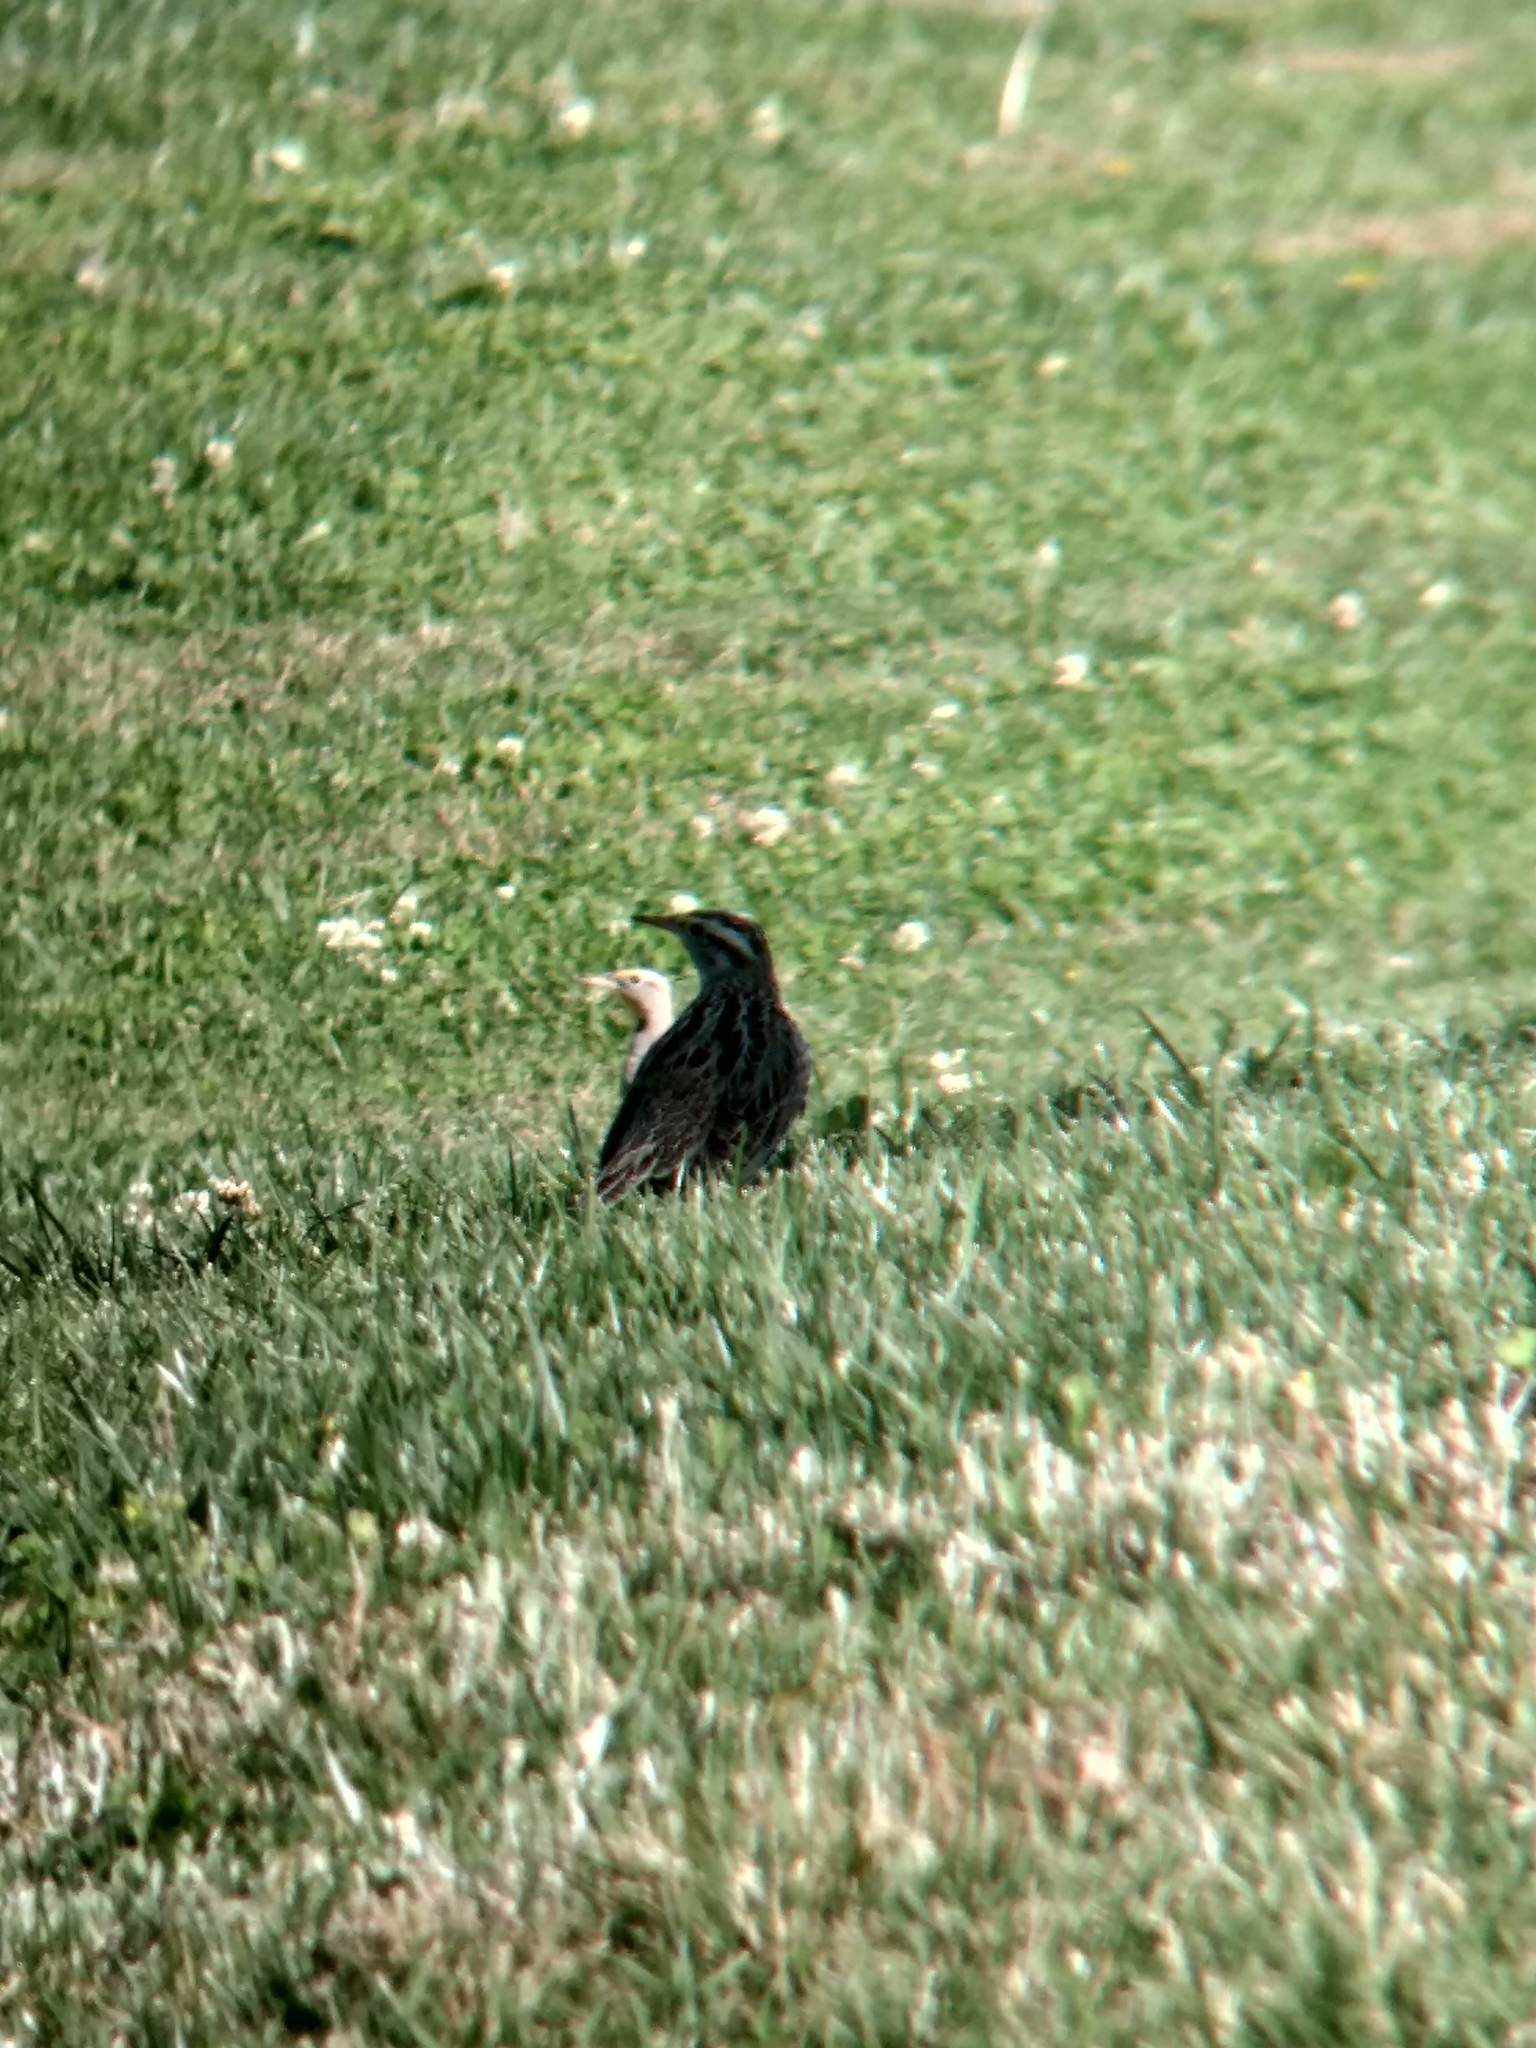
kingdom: Animalia
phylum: Chordata
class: Aves
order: Passeriformes
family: Icteridae
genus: Sturnella
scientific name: Sturnella neglecta
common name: Western meadowlark
